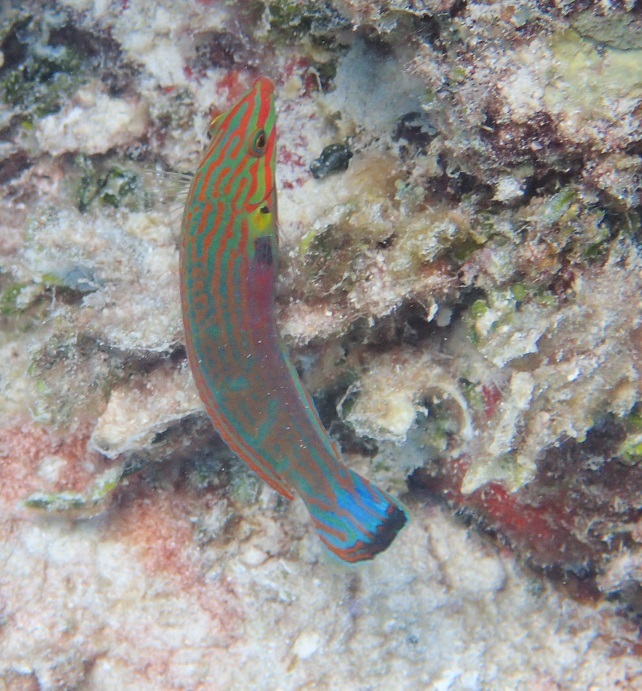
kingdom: Animalia
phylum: Chordata
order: Perciformes
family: Labridae
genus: Halichoeres
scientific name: Halichoeres melanurus
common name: Hoeven's wrasse
